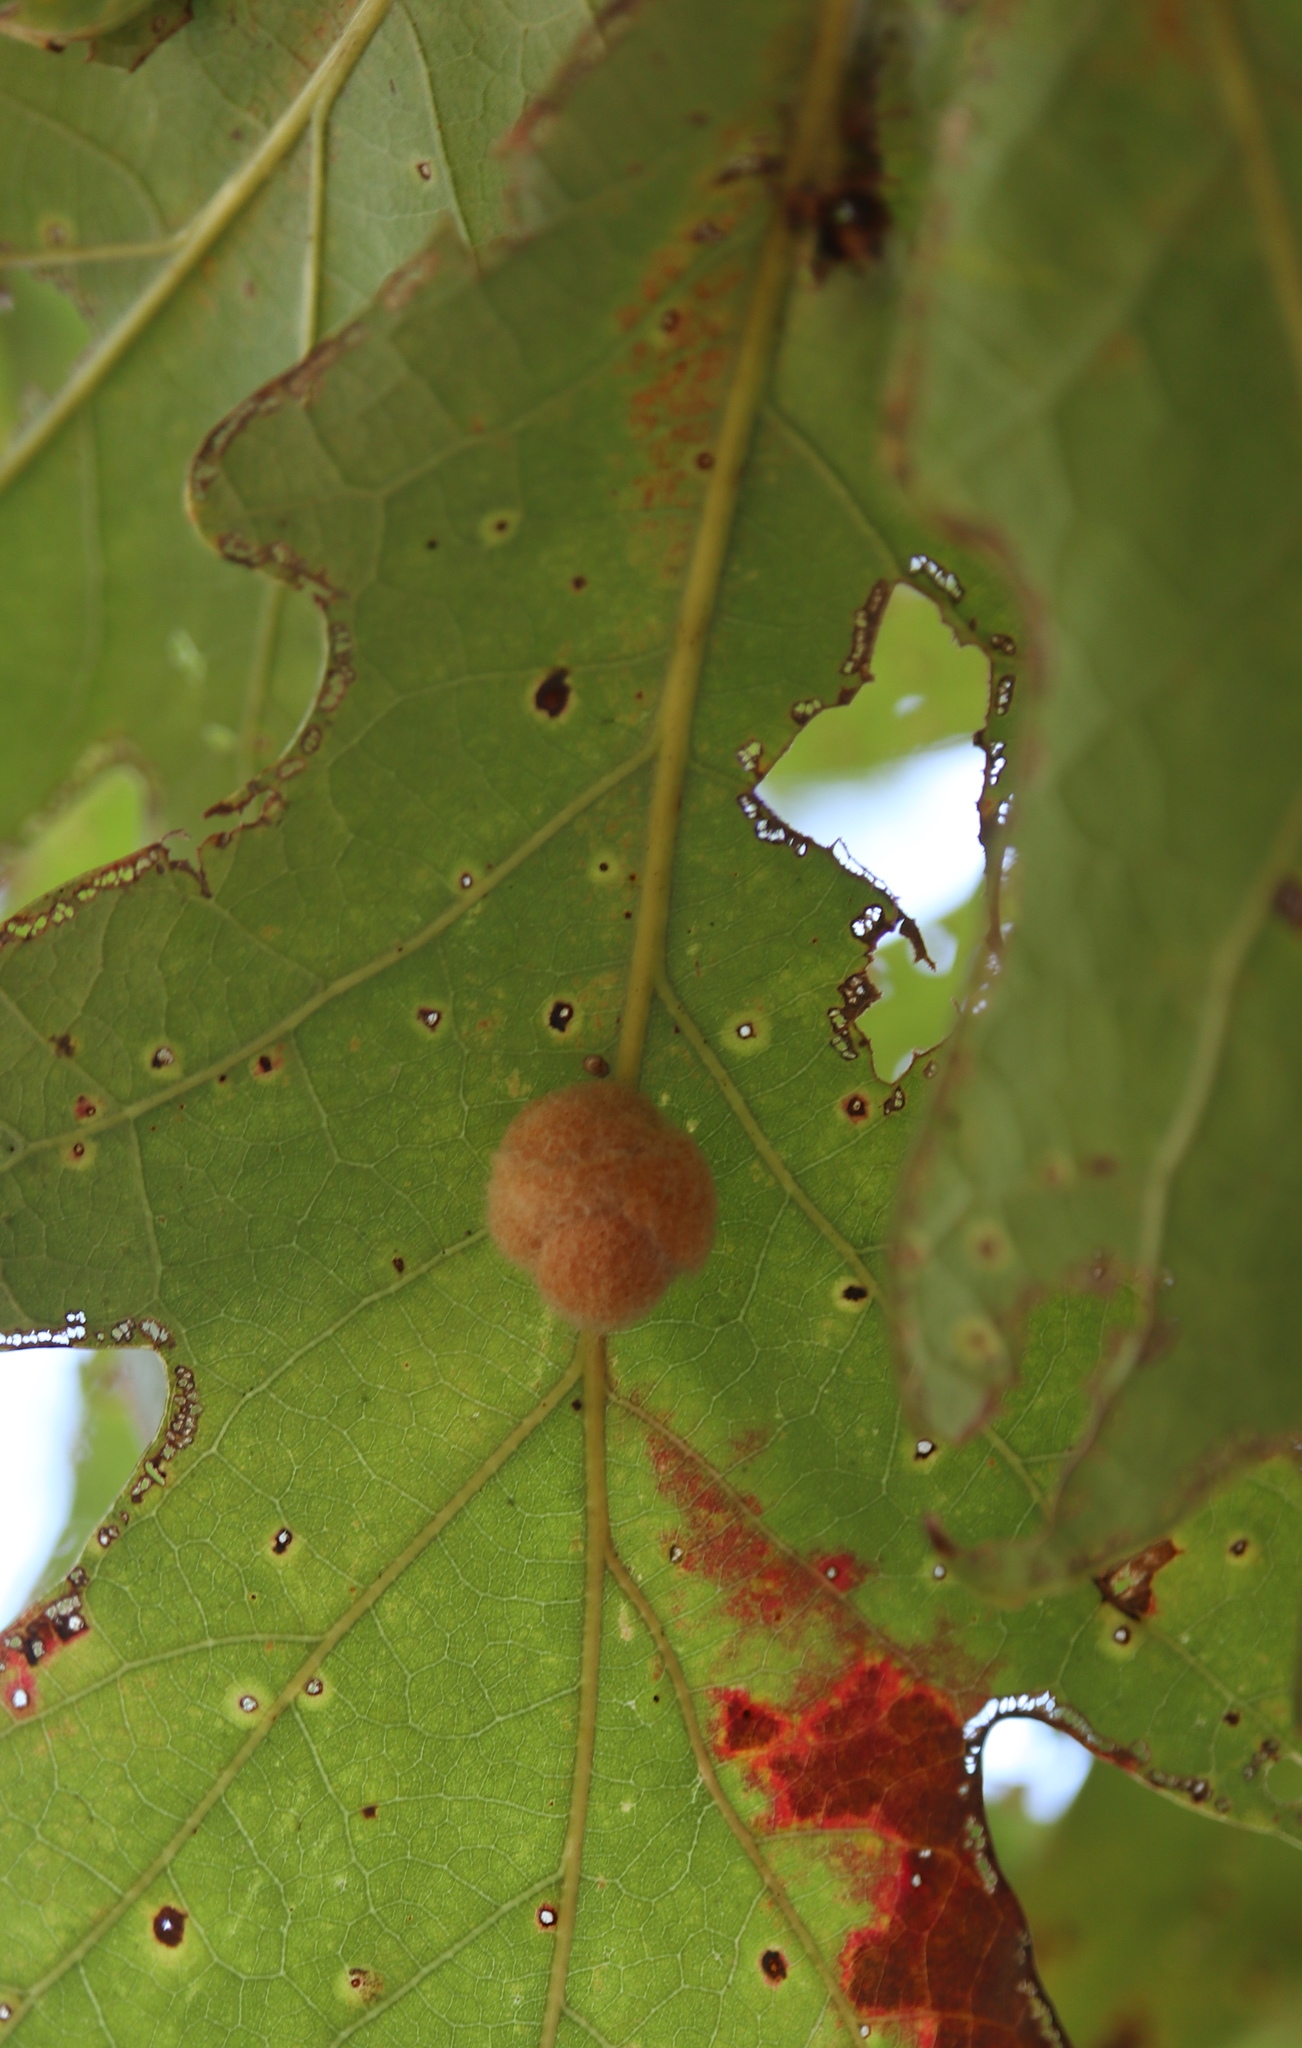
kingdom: Animalia
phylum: Arthropoda
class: Insecta
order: Hymenoptera
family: Cynipidae
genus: Andricus
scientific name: Andricus quercusflocci
